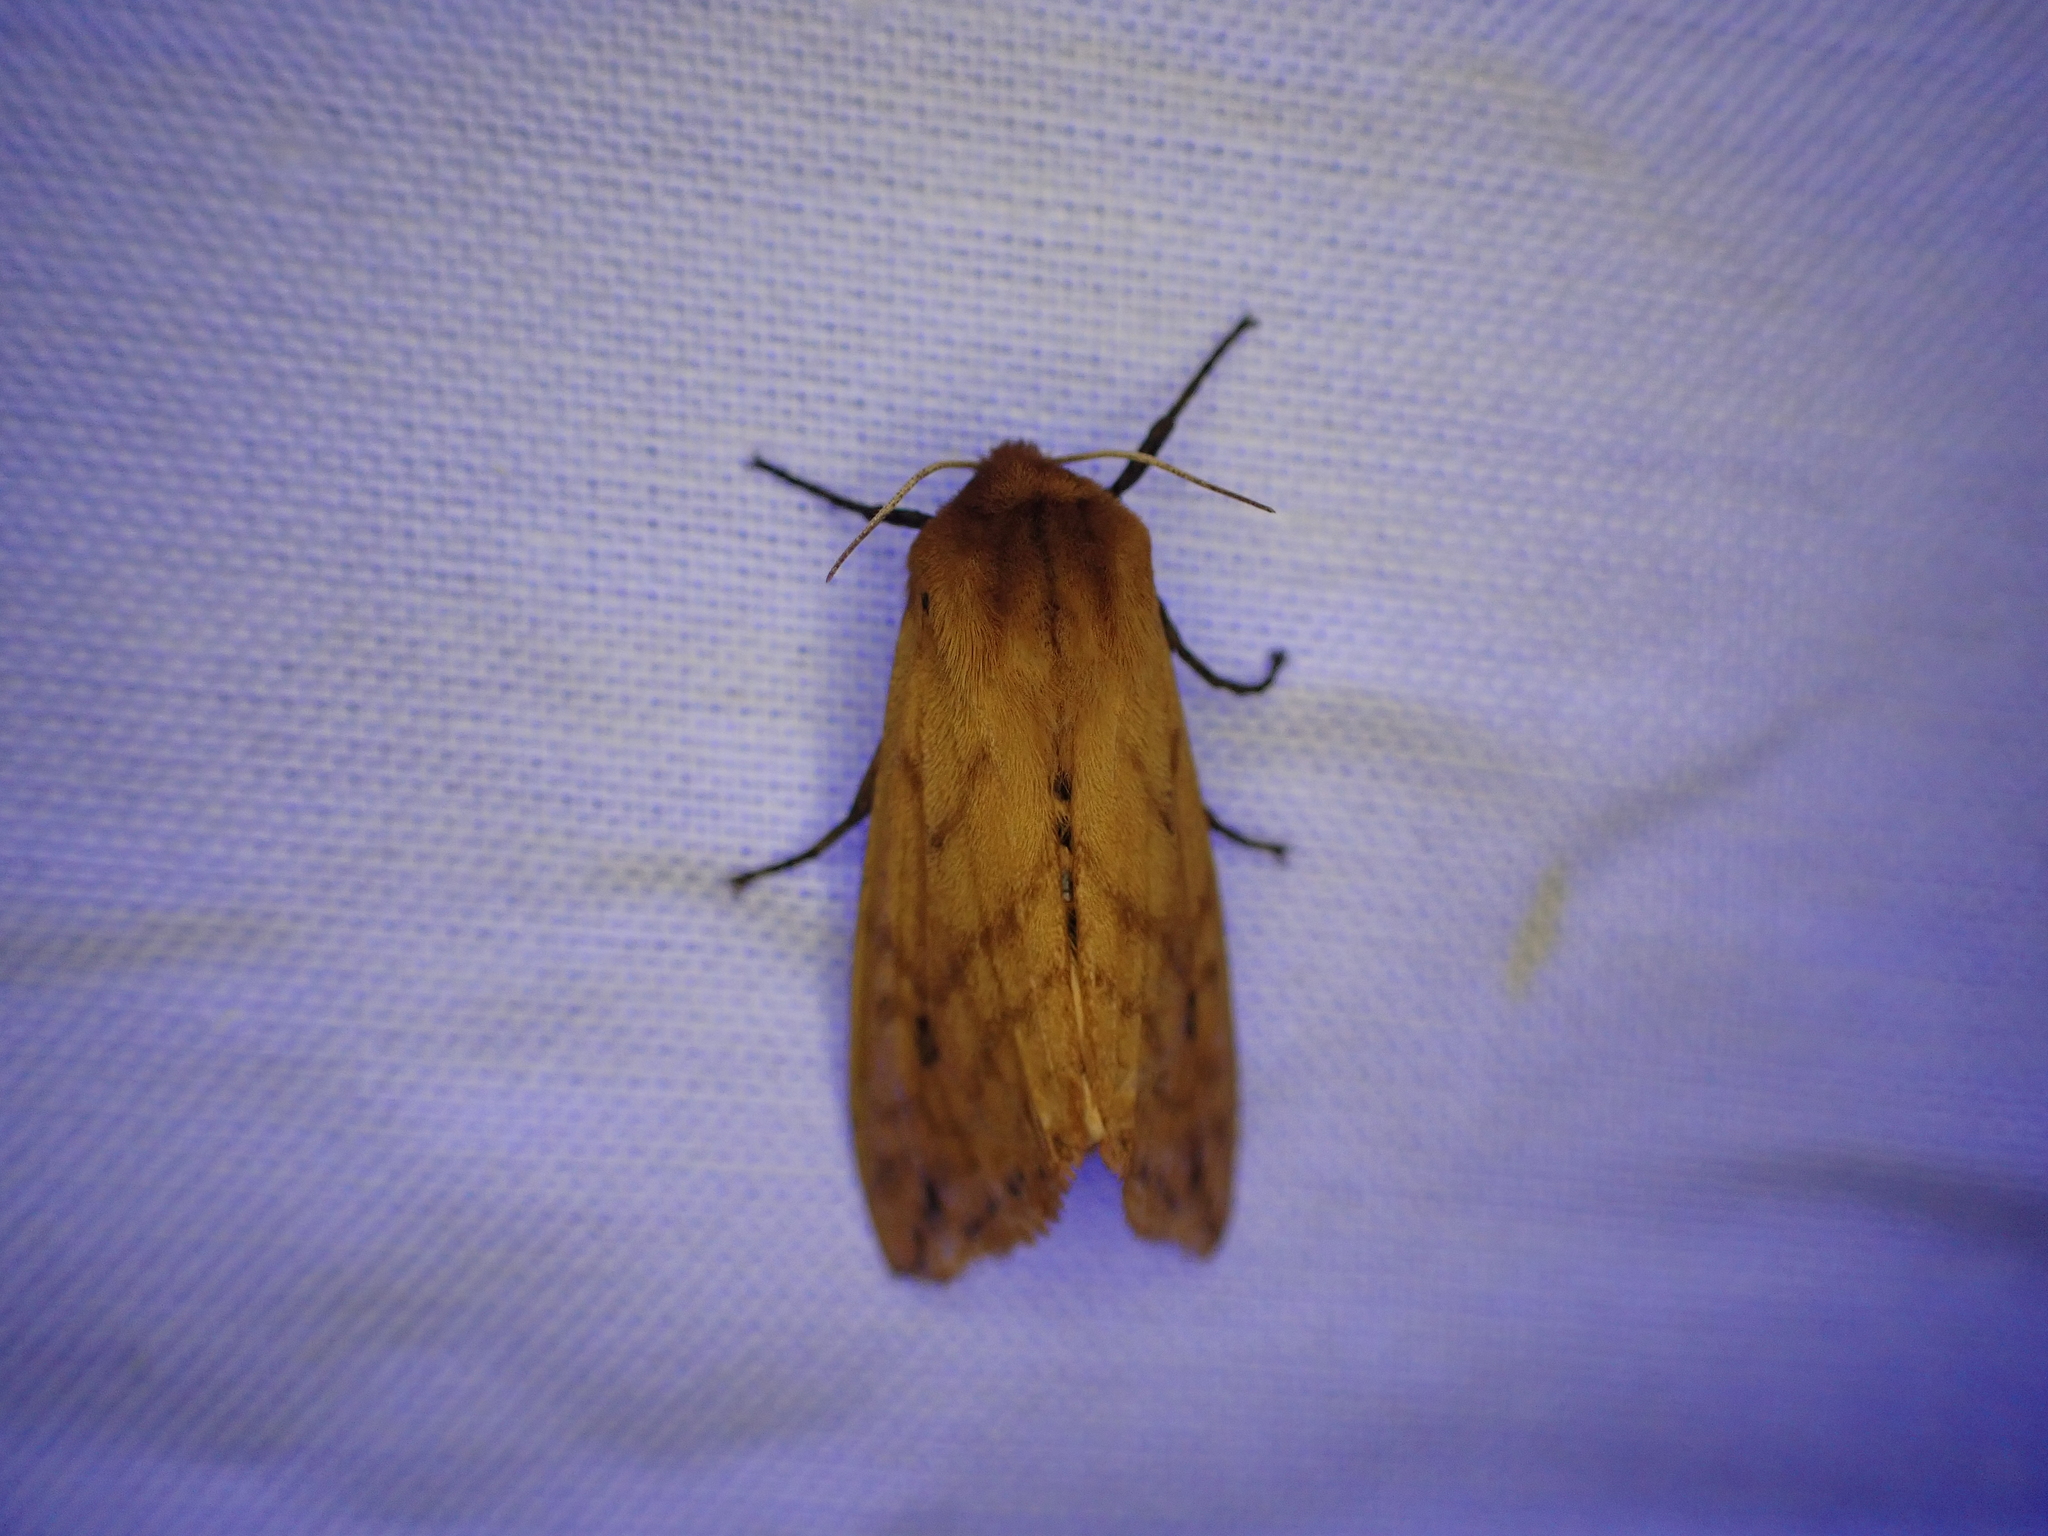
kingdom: Animalia
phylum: Arthropoda
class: Insecta
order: Lepidoptera
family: Erebidae
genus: Pyrrharctia
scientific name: Pyrrharctia isabella
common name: Isabella tiger moth
